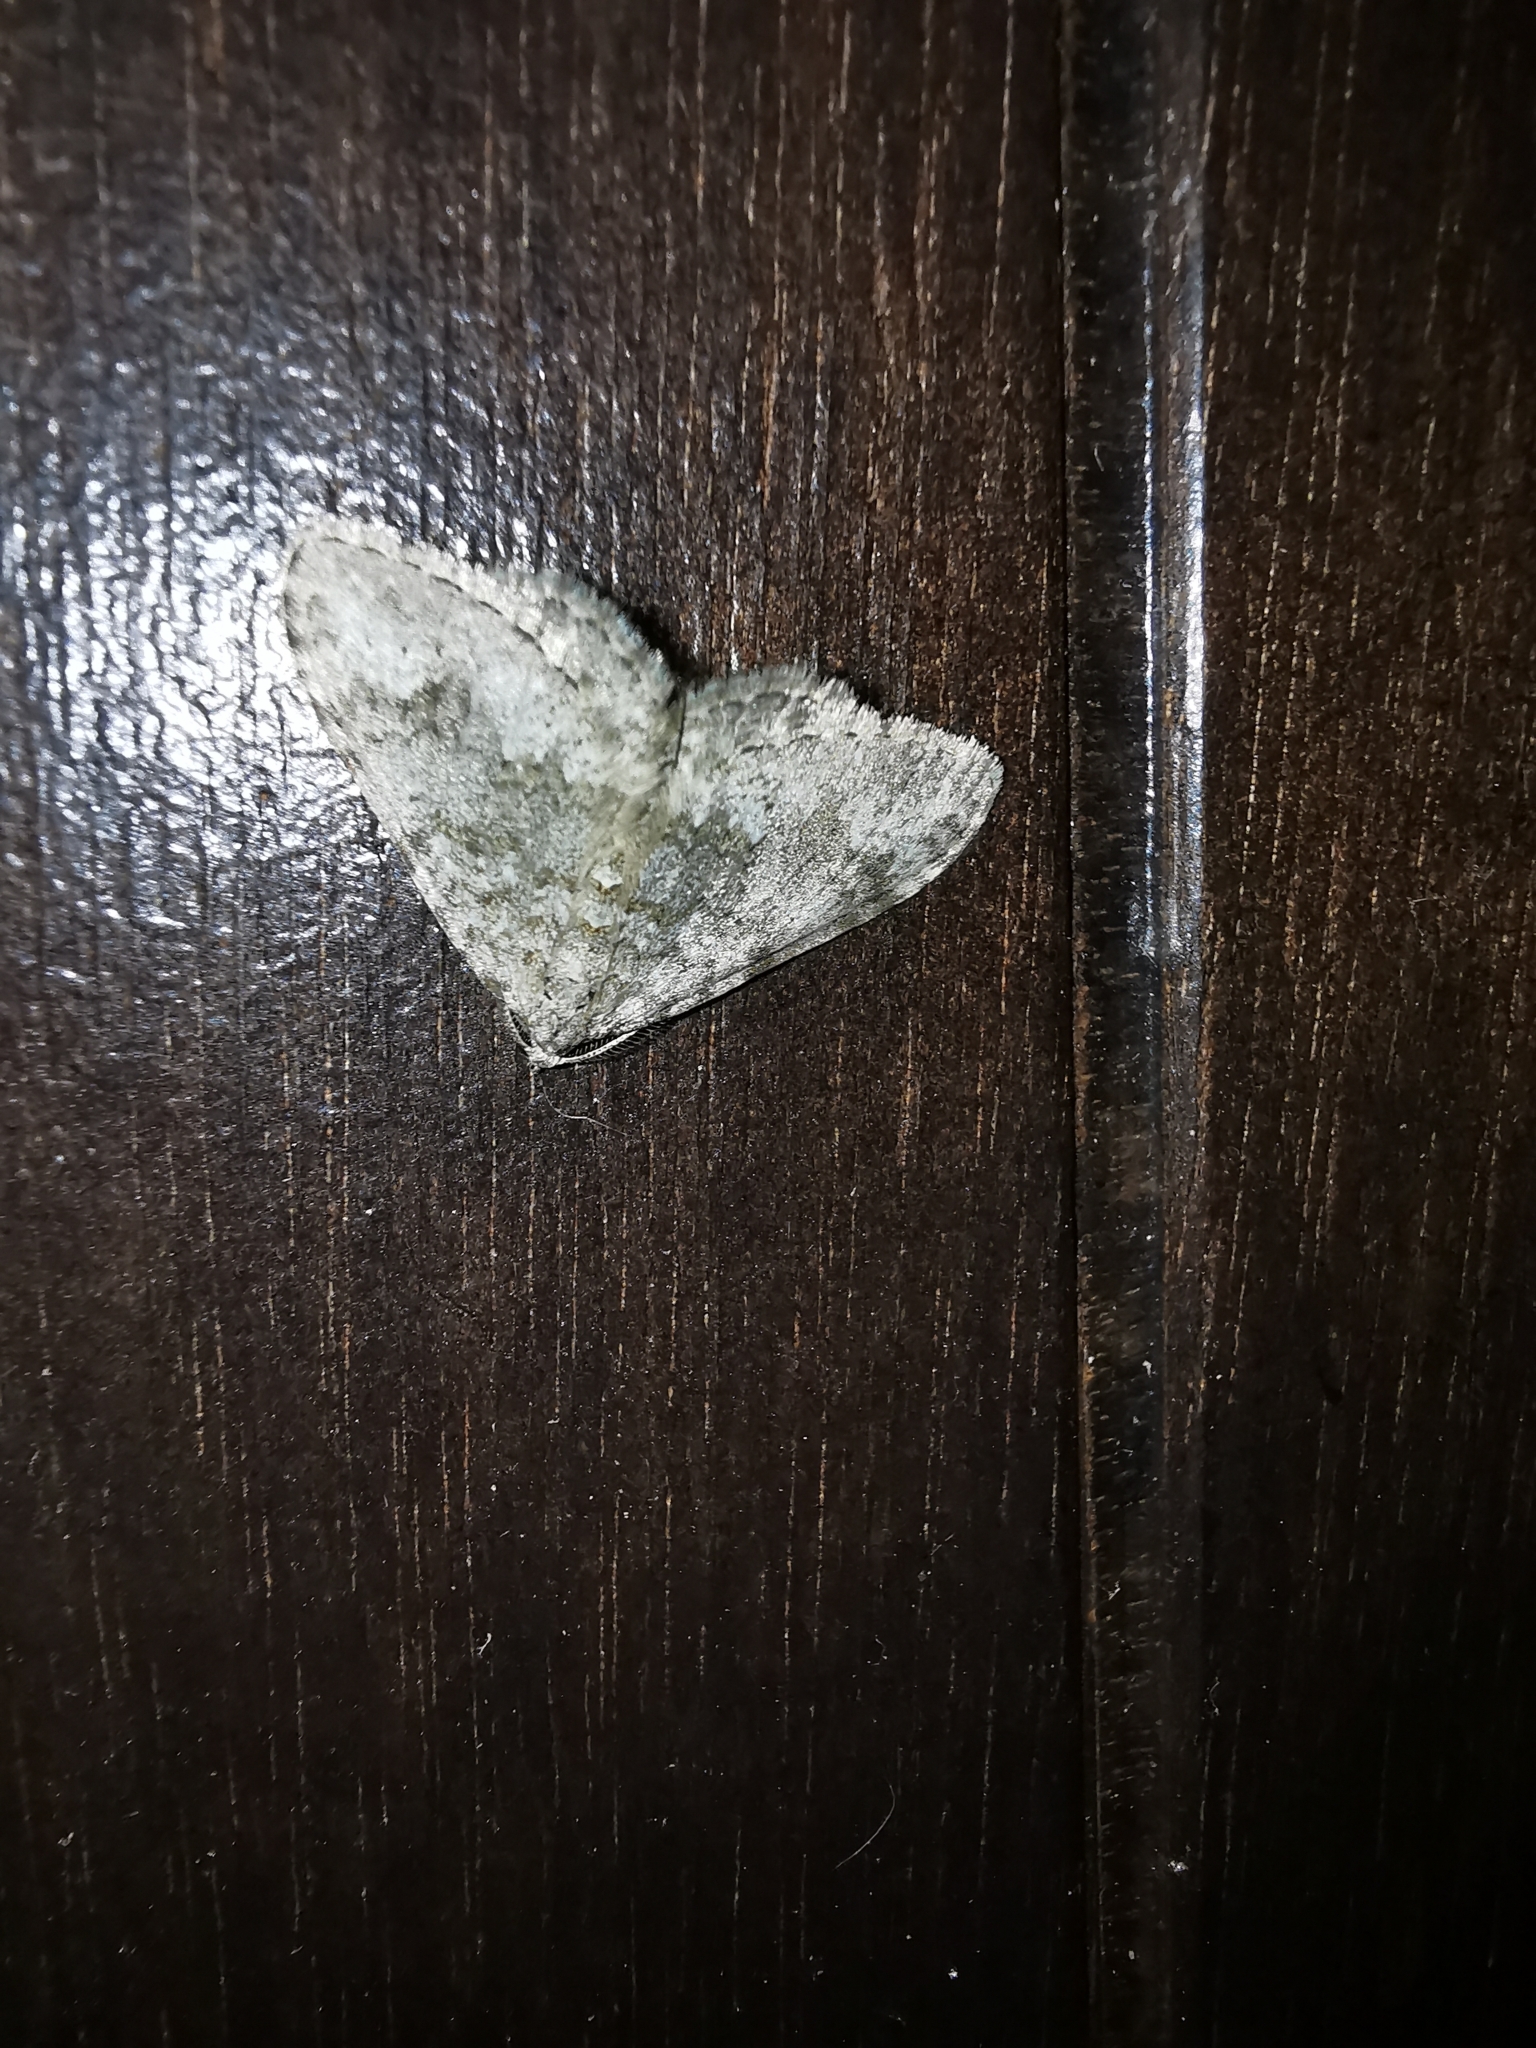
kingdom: Animalia
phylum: Arthropoda
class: Insecta
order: Lepidoptera
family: Geometridae
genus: Nebula
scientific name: Nebula salicata
